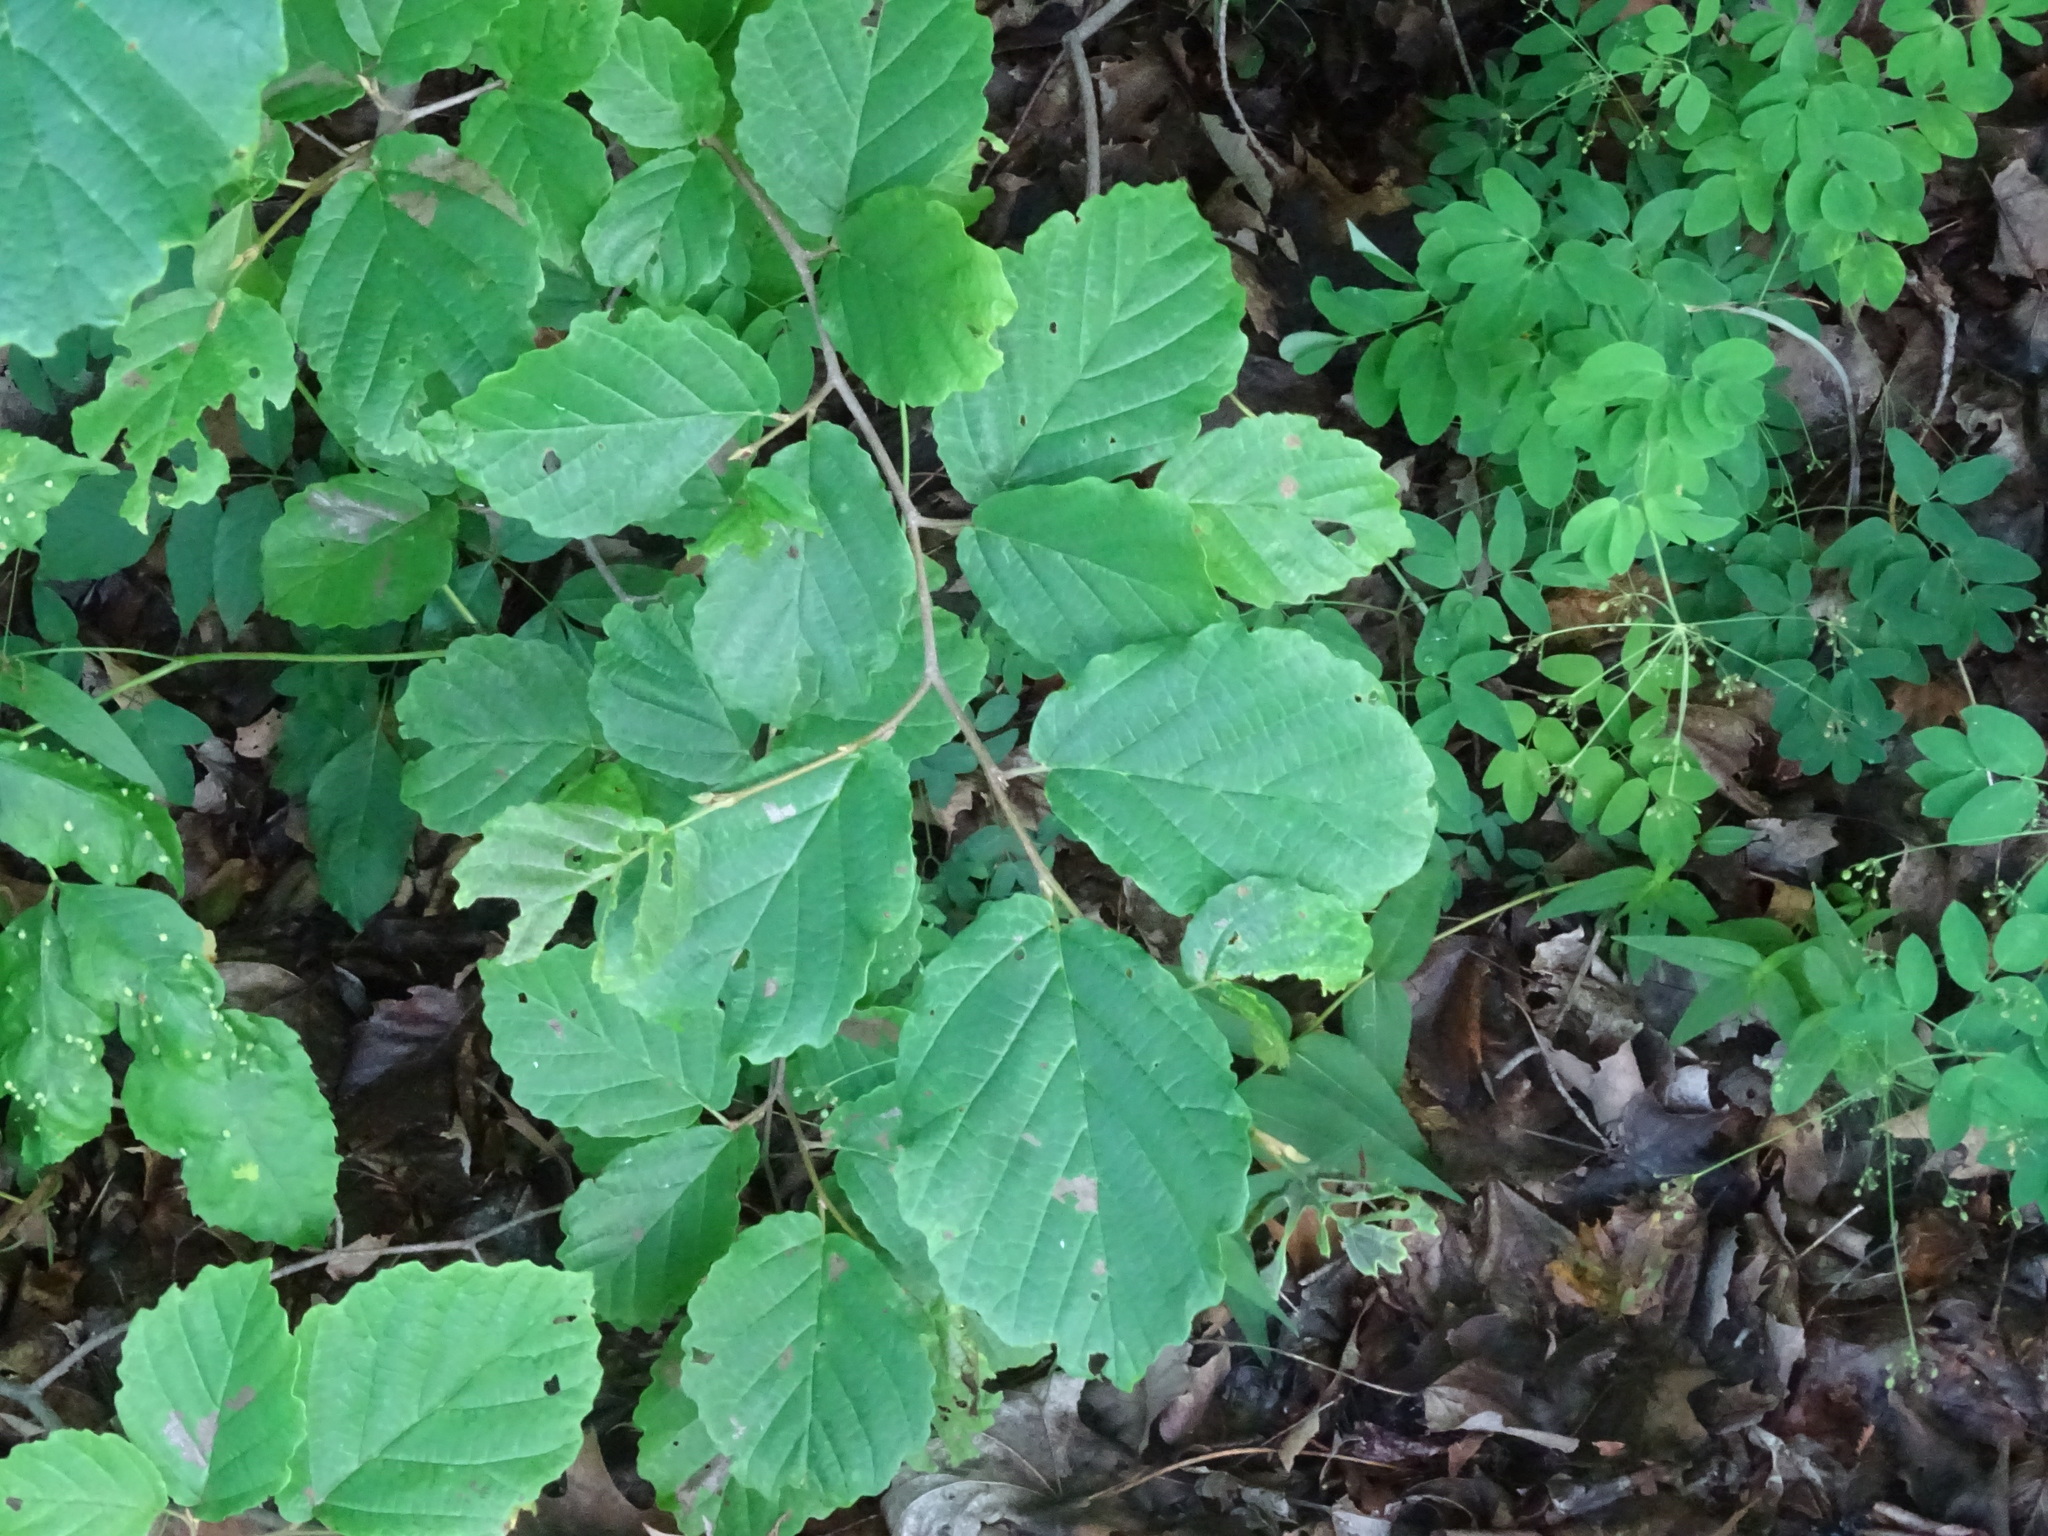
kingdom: Plantae
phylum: Tracheophyta
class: Magnoliopsida
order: Saxifragales
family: Hamamelidaceae
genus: Hamamelis
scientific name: Hamamelis virginiana
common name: Witch-hazel
